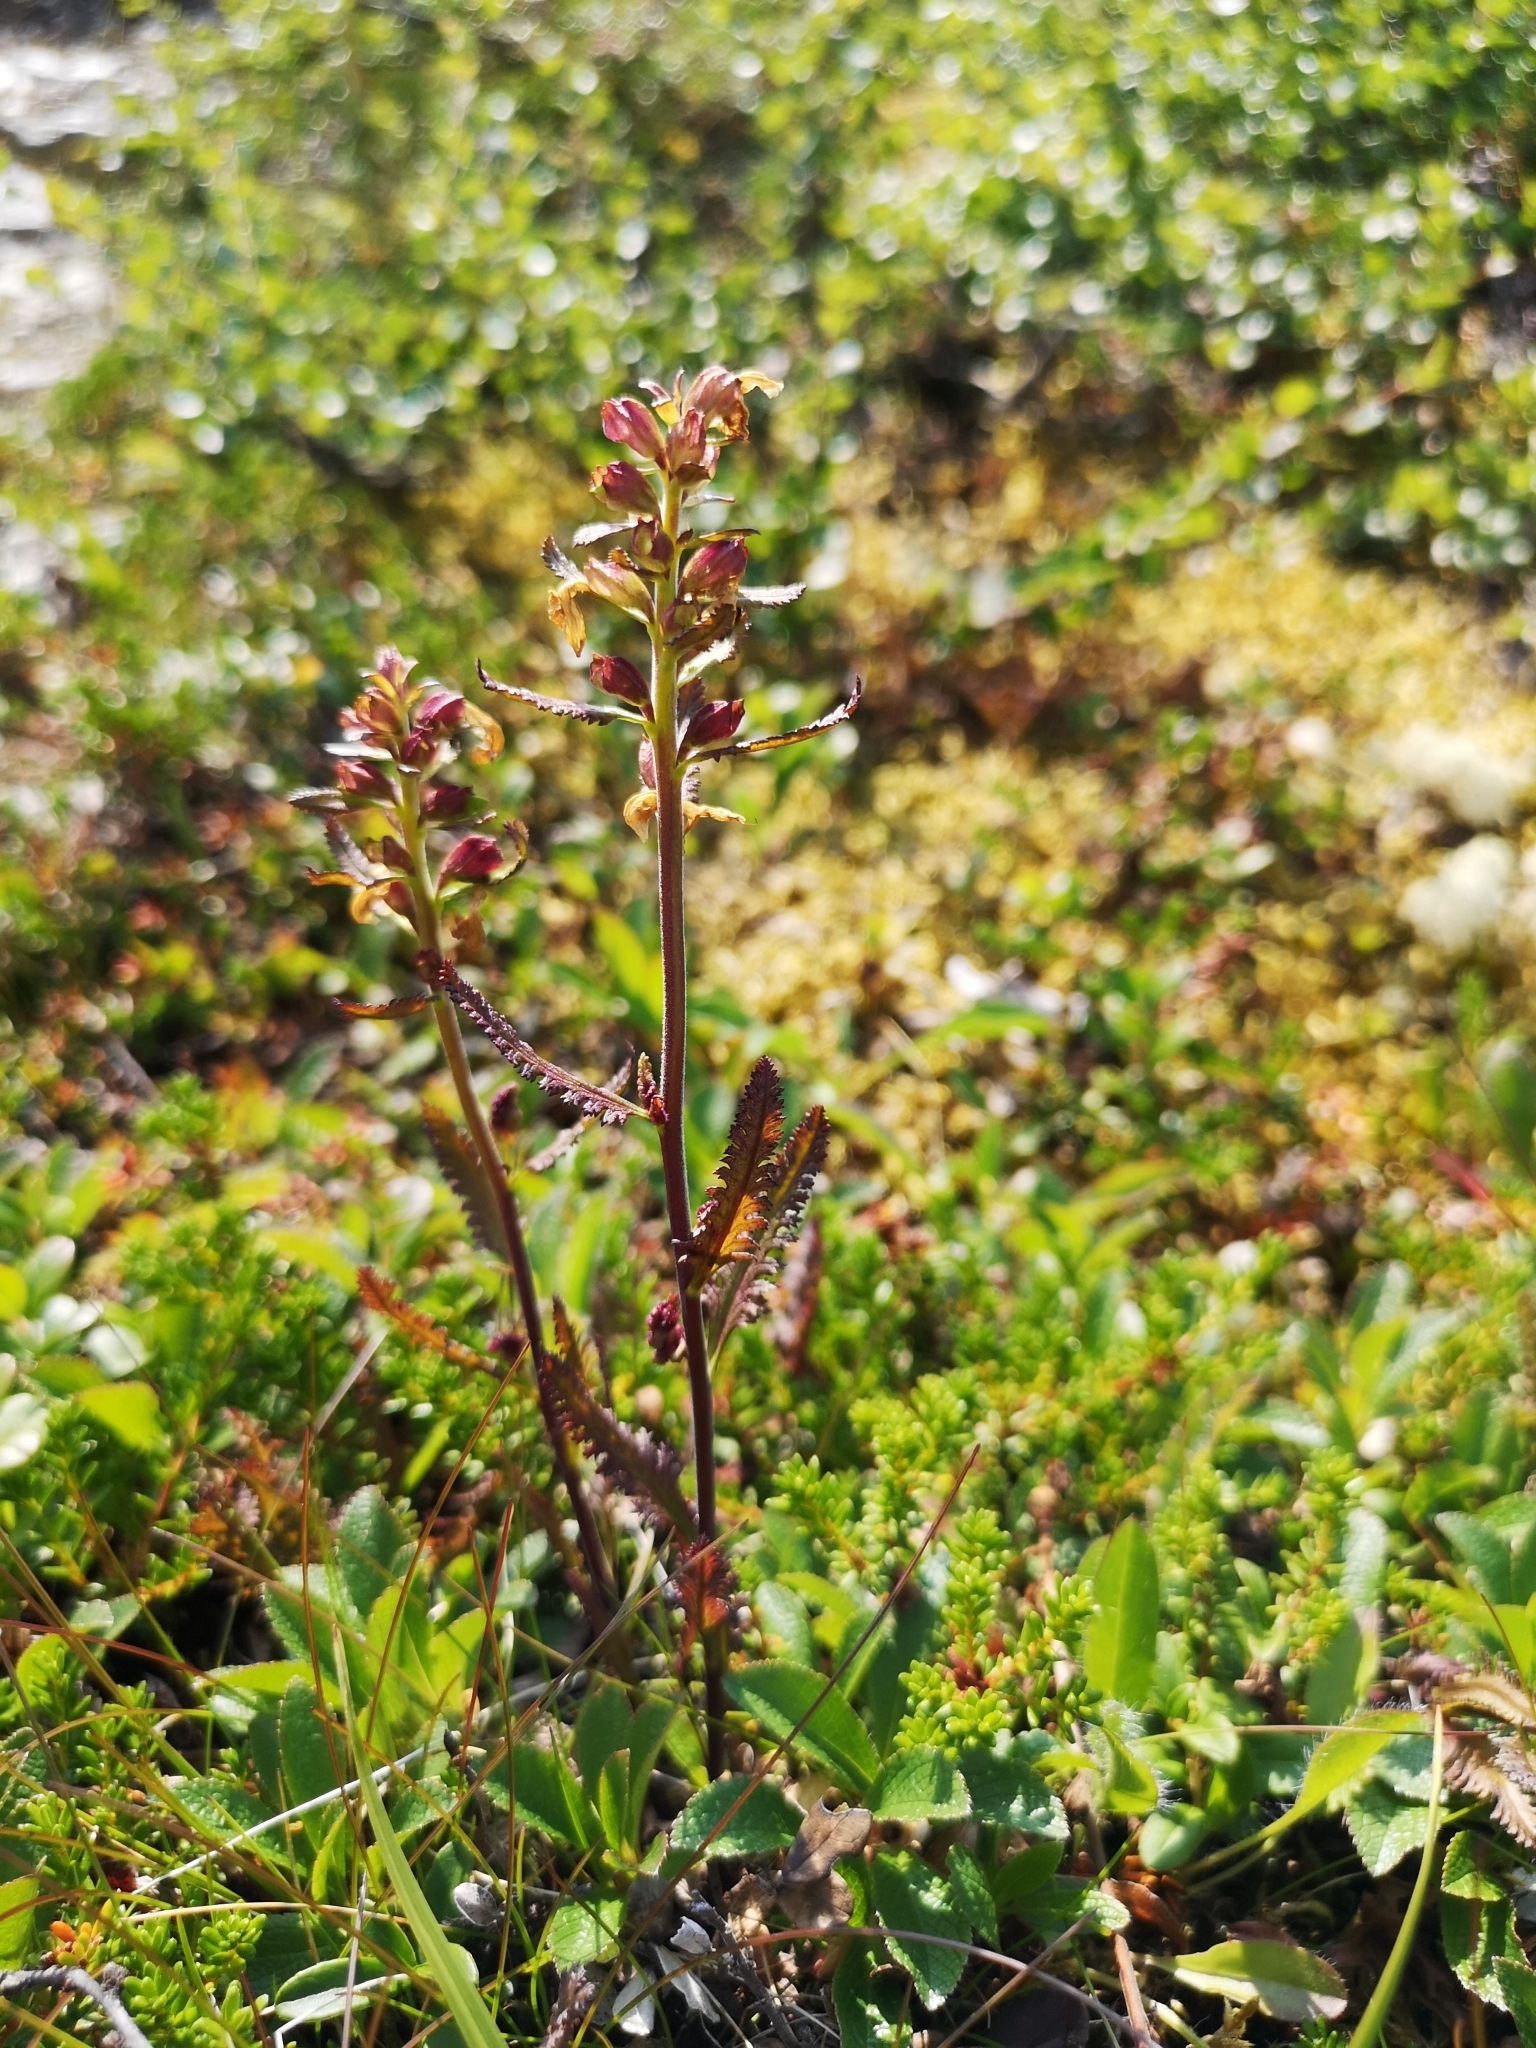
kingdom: Plantae
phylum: Tracheophyta
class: Magnoliopsida
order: Lamiales
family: Orobanchaceae
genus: Pedicularis
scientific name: Pedicularis lapponica
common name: Lapland lousewort
